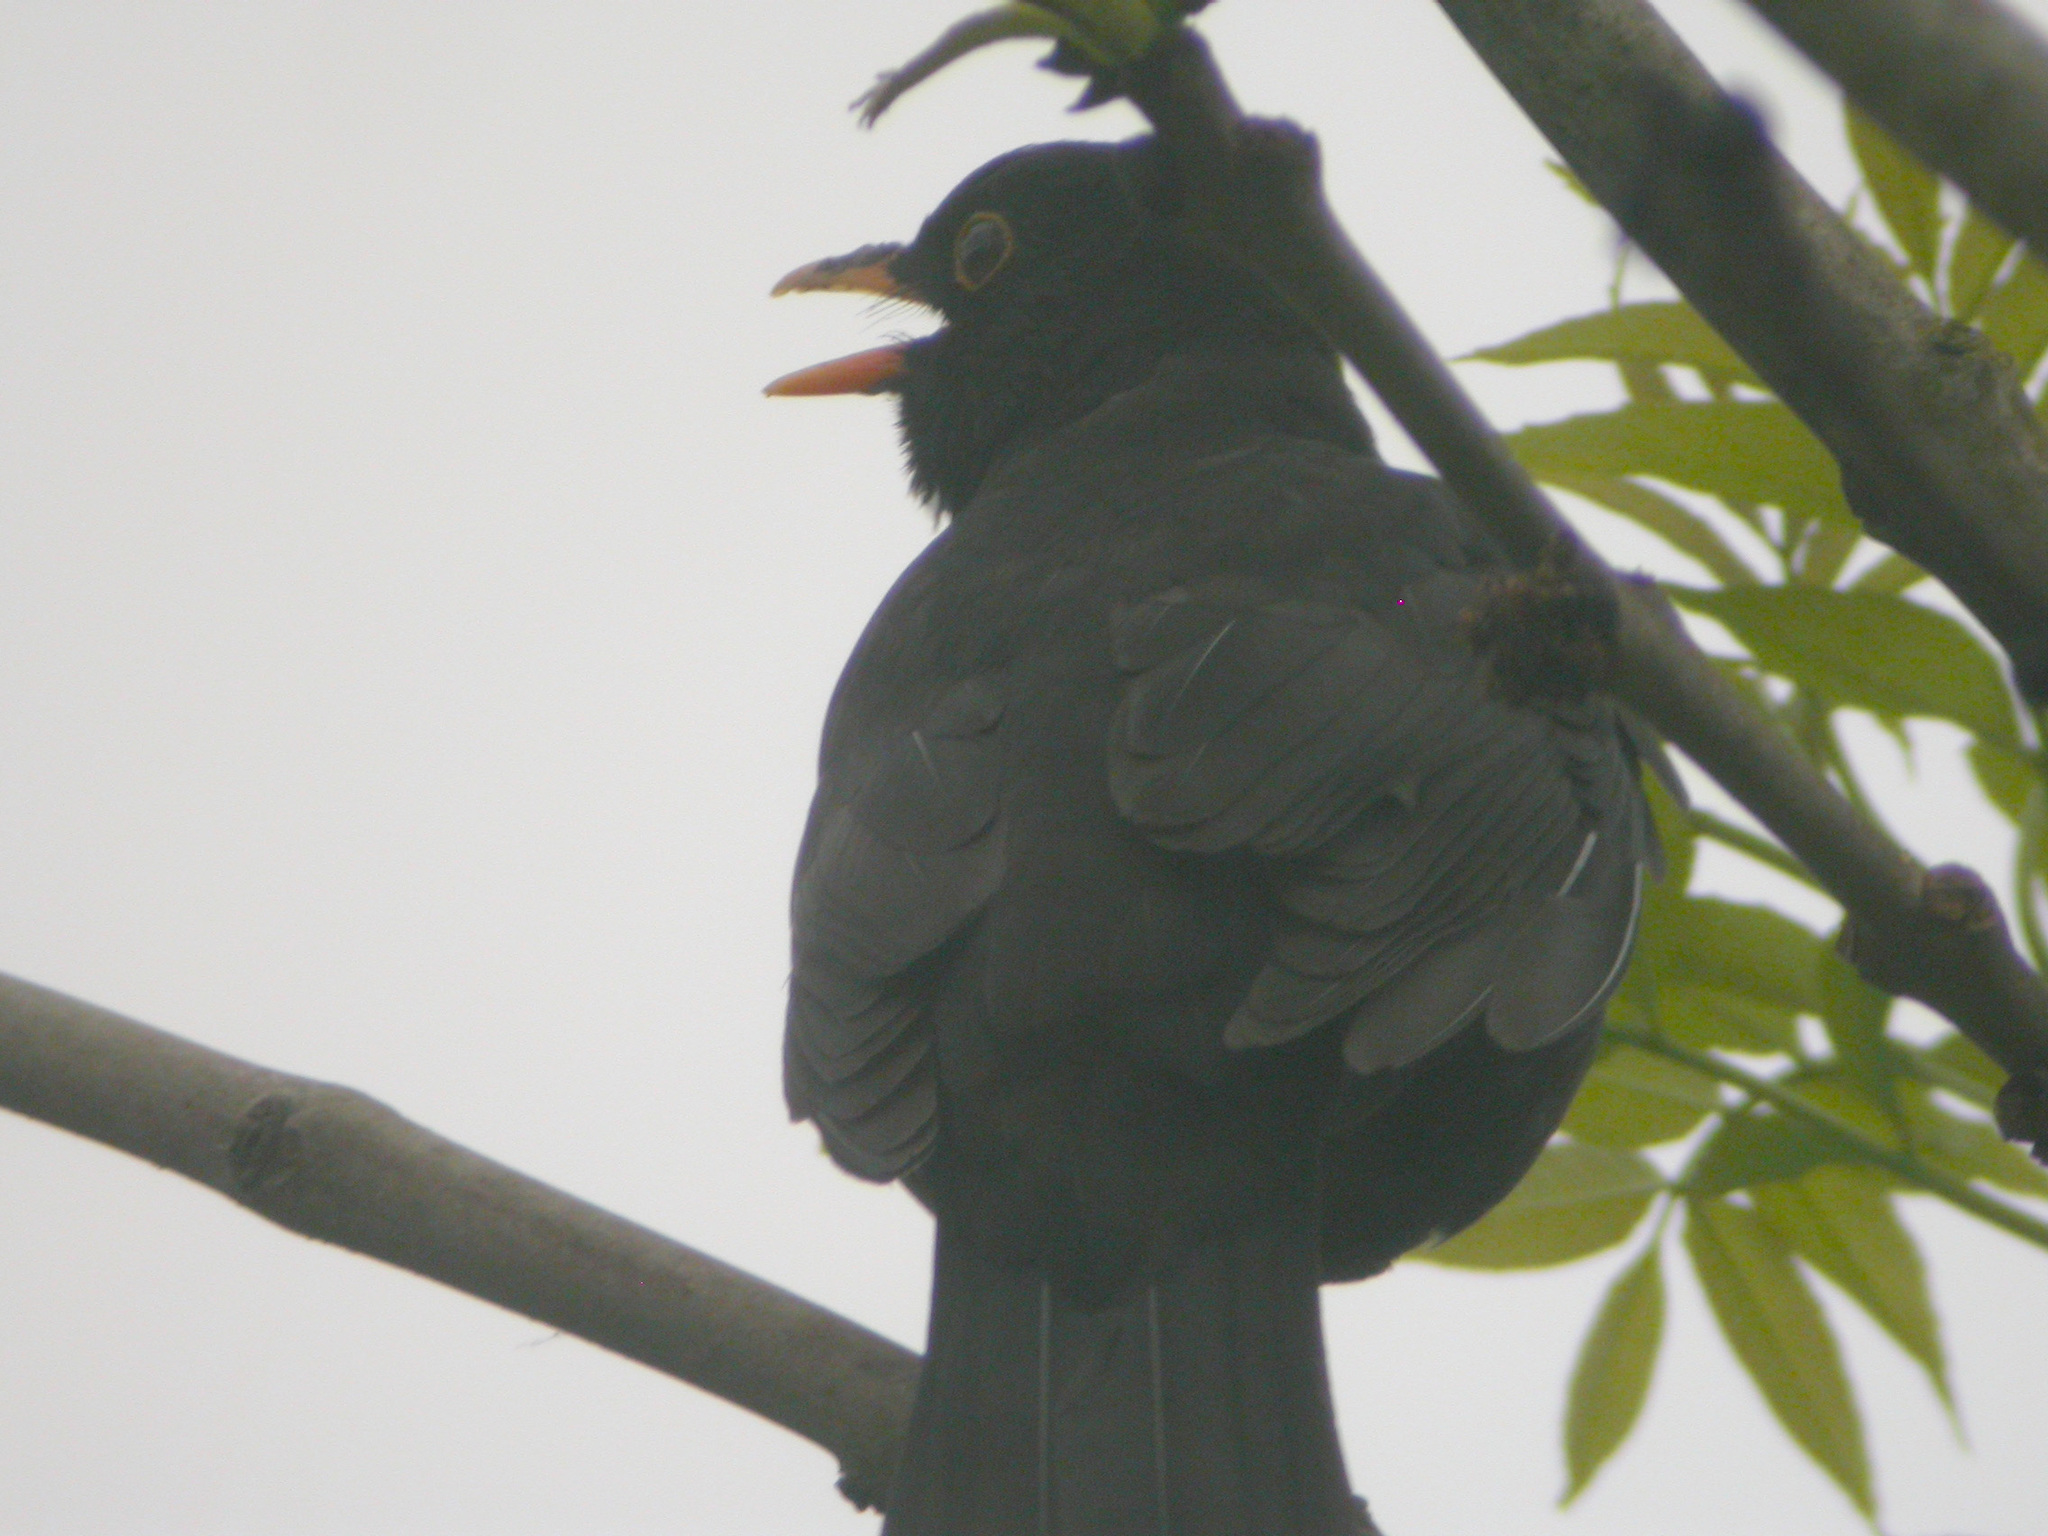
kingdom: Animalia
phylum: Chordata
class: Aves
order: Passeriformes
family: Turdidae
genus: Turdus
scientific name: Turdus merula
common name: Common blackbird
